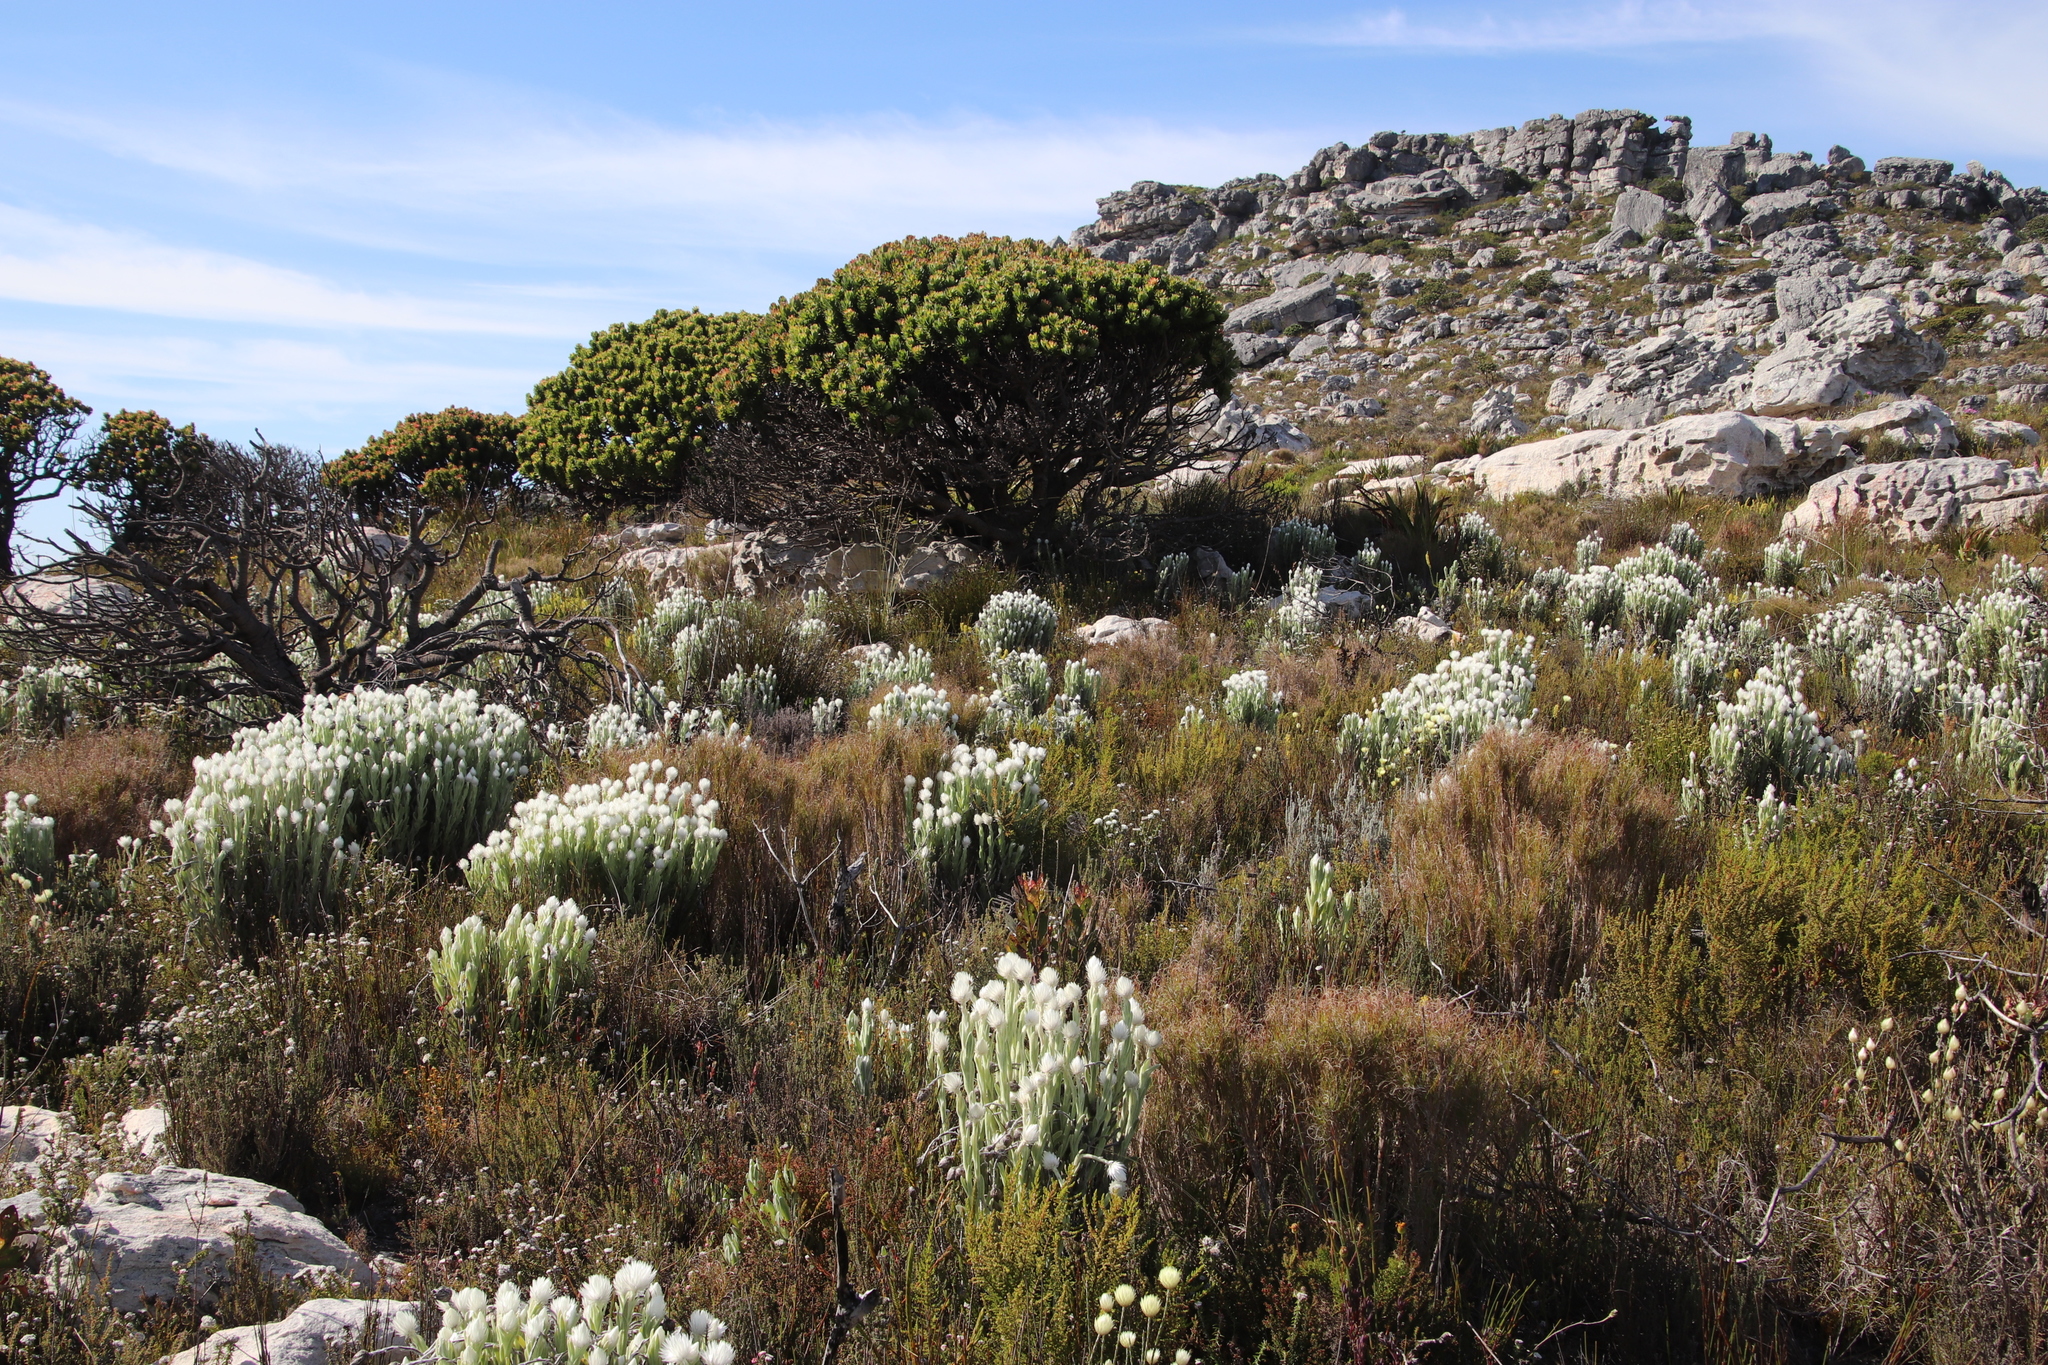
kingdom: Plantae
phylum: Tracheophyta
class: Magnoliopsida
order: Asterales
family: Asteraceae
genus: Syncarpha
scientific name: Syncarpha vestita
